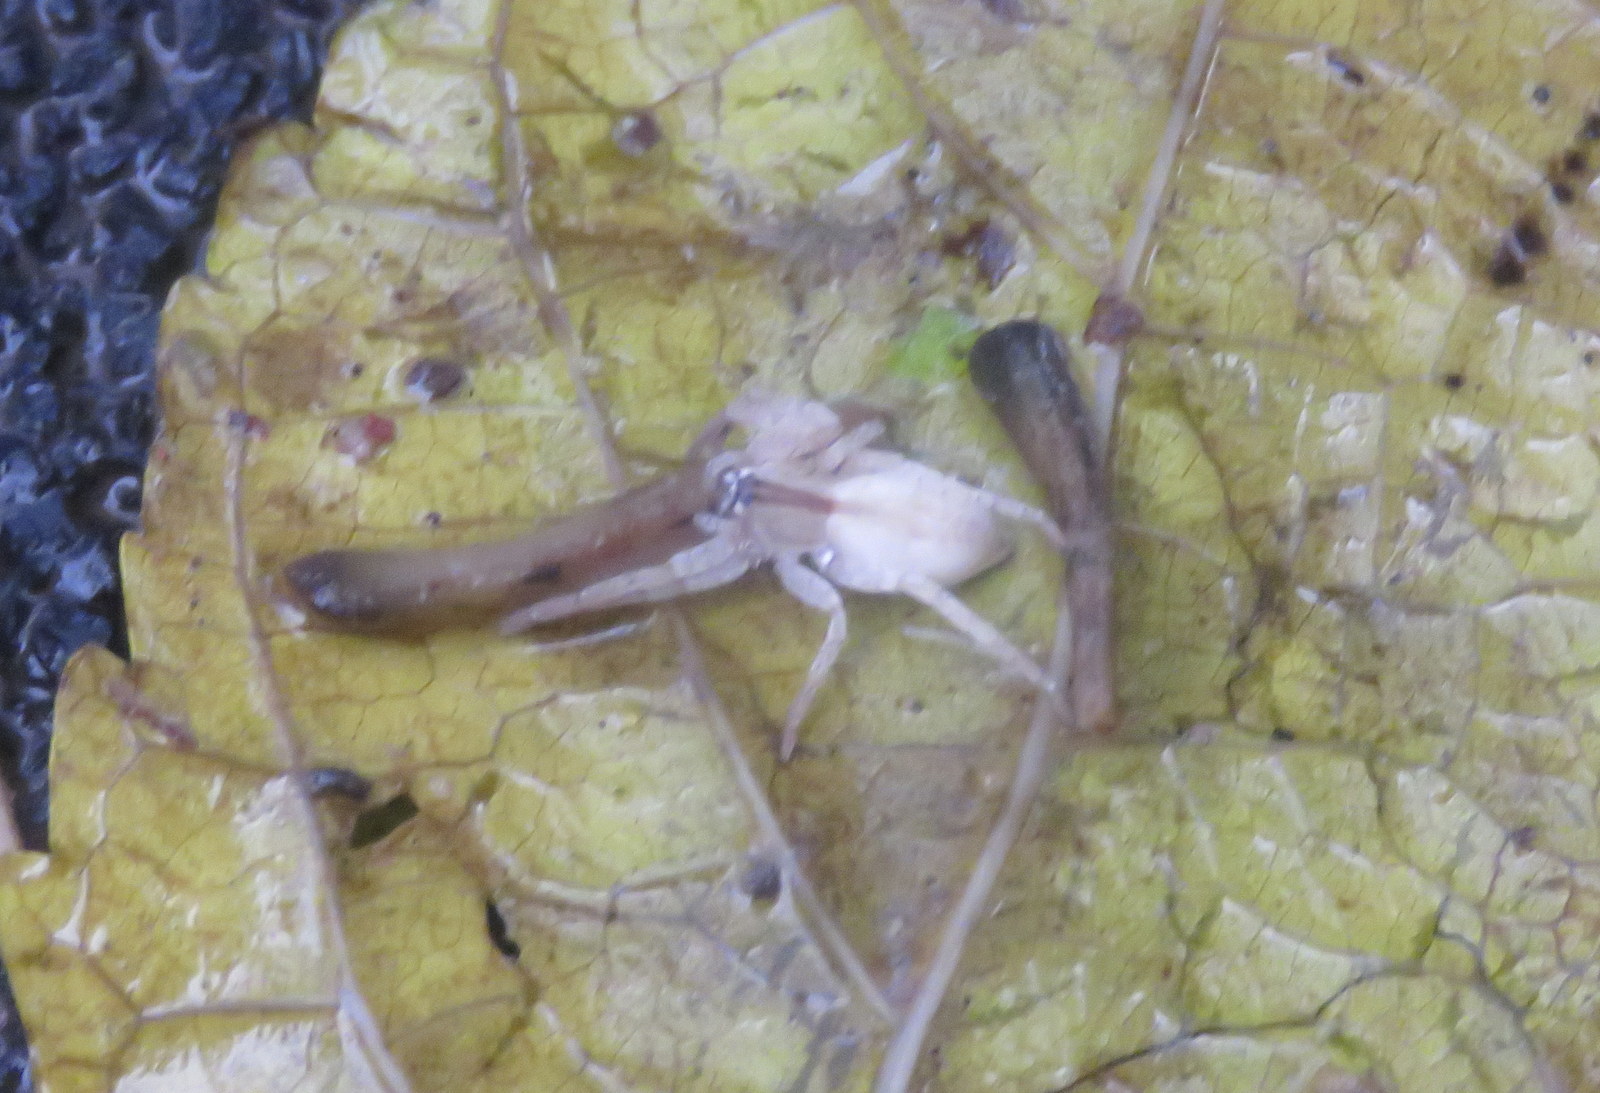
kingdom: Animalia
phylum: Arthropoda
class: Arachnida
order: Araneae
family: Anyphaenidae
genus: Arachosia
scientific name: Arachosia praesignis
